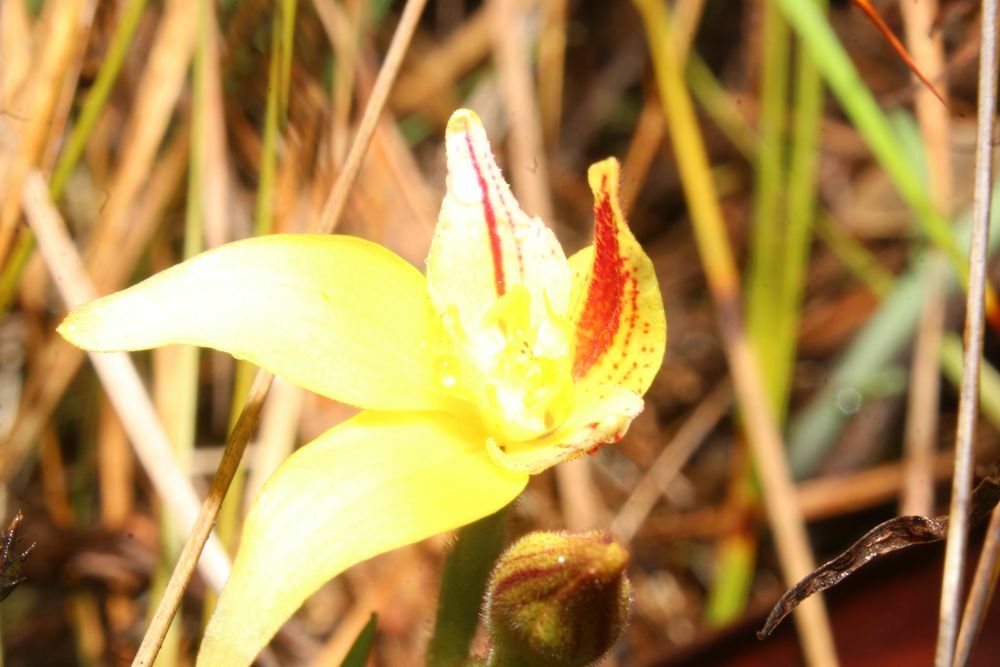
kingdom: Plantae
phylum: Tracheophyta
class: Liliopsida
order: Asparagales
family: Orchidaceae
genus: Caladenia
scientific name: Caladenia flava
